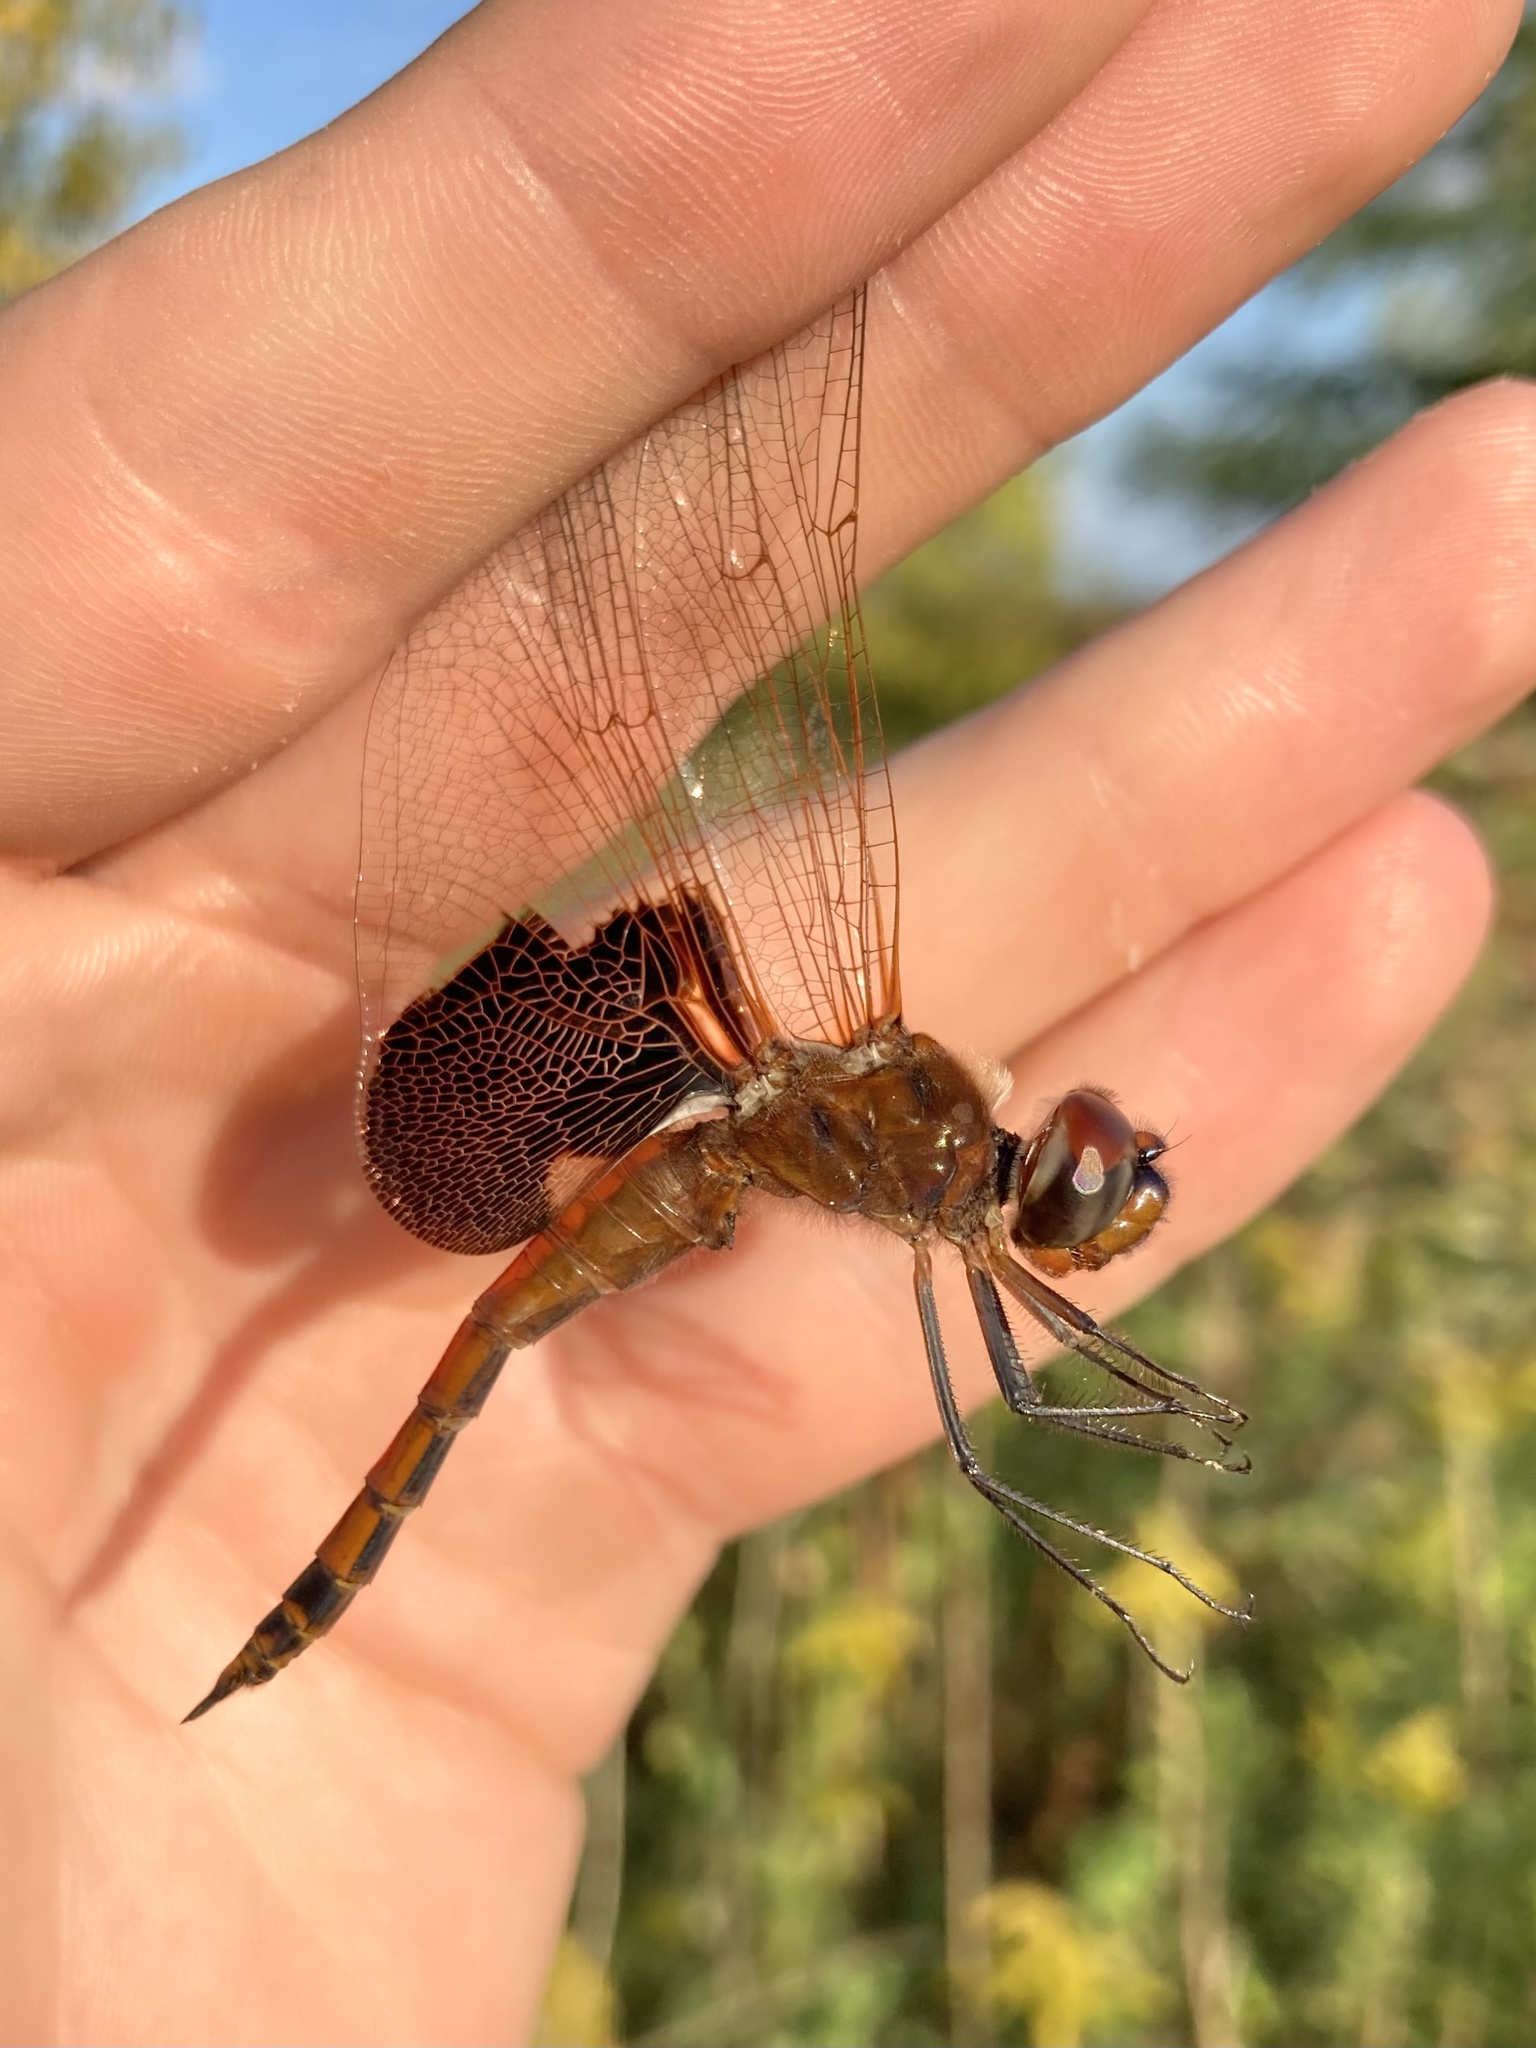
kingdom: Animalia
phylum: Arthropoda
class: Insecta
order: Odonata
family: Libellulidae
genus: Tramea
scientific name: Tramea carolina
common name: Carolina saddlebags
